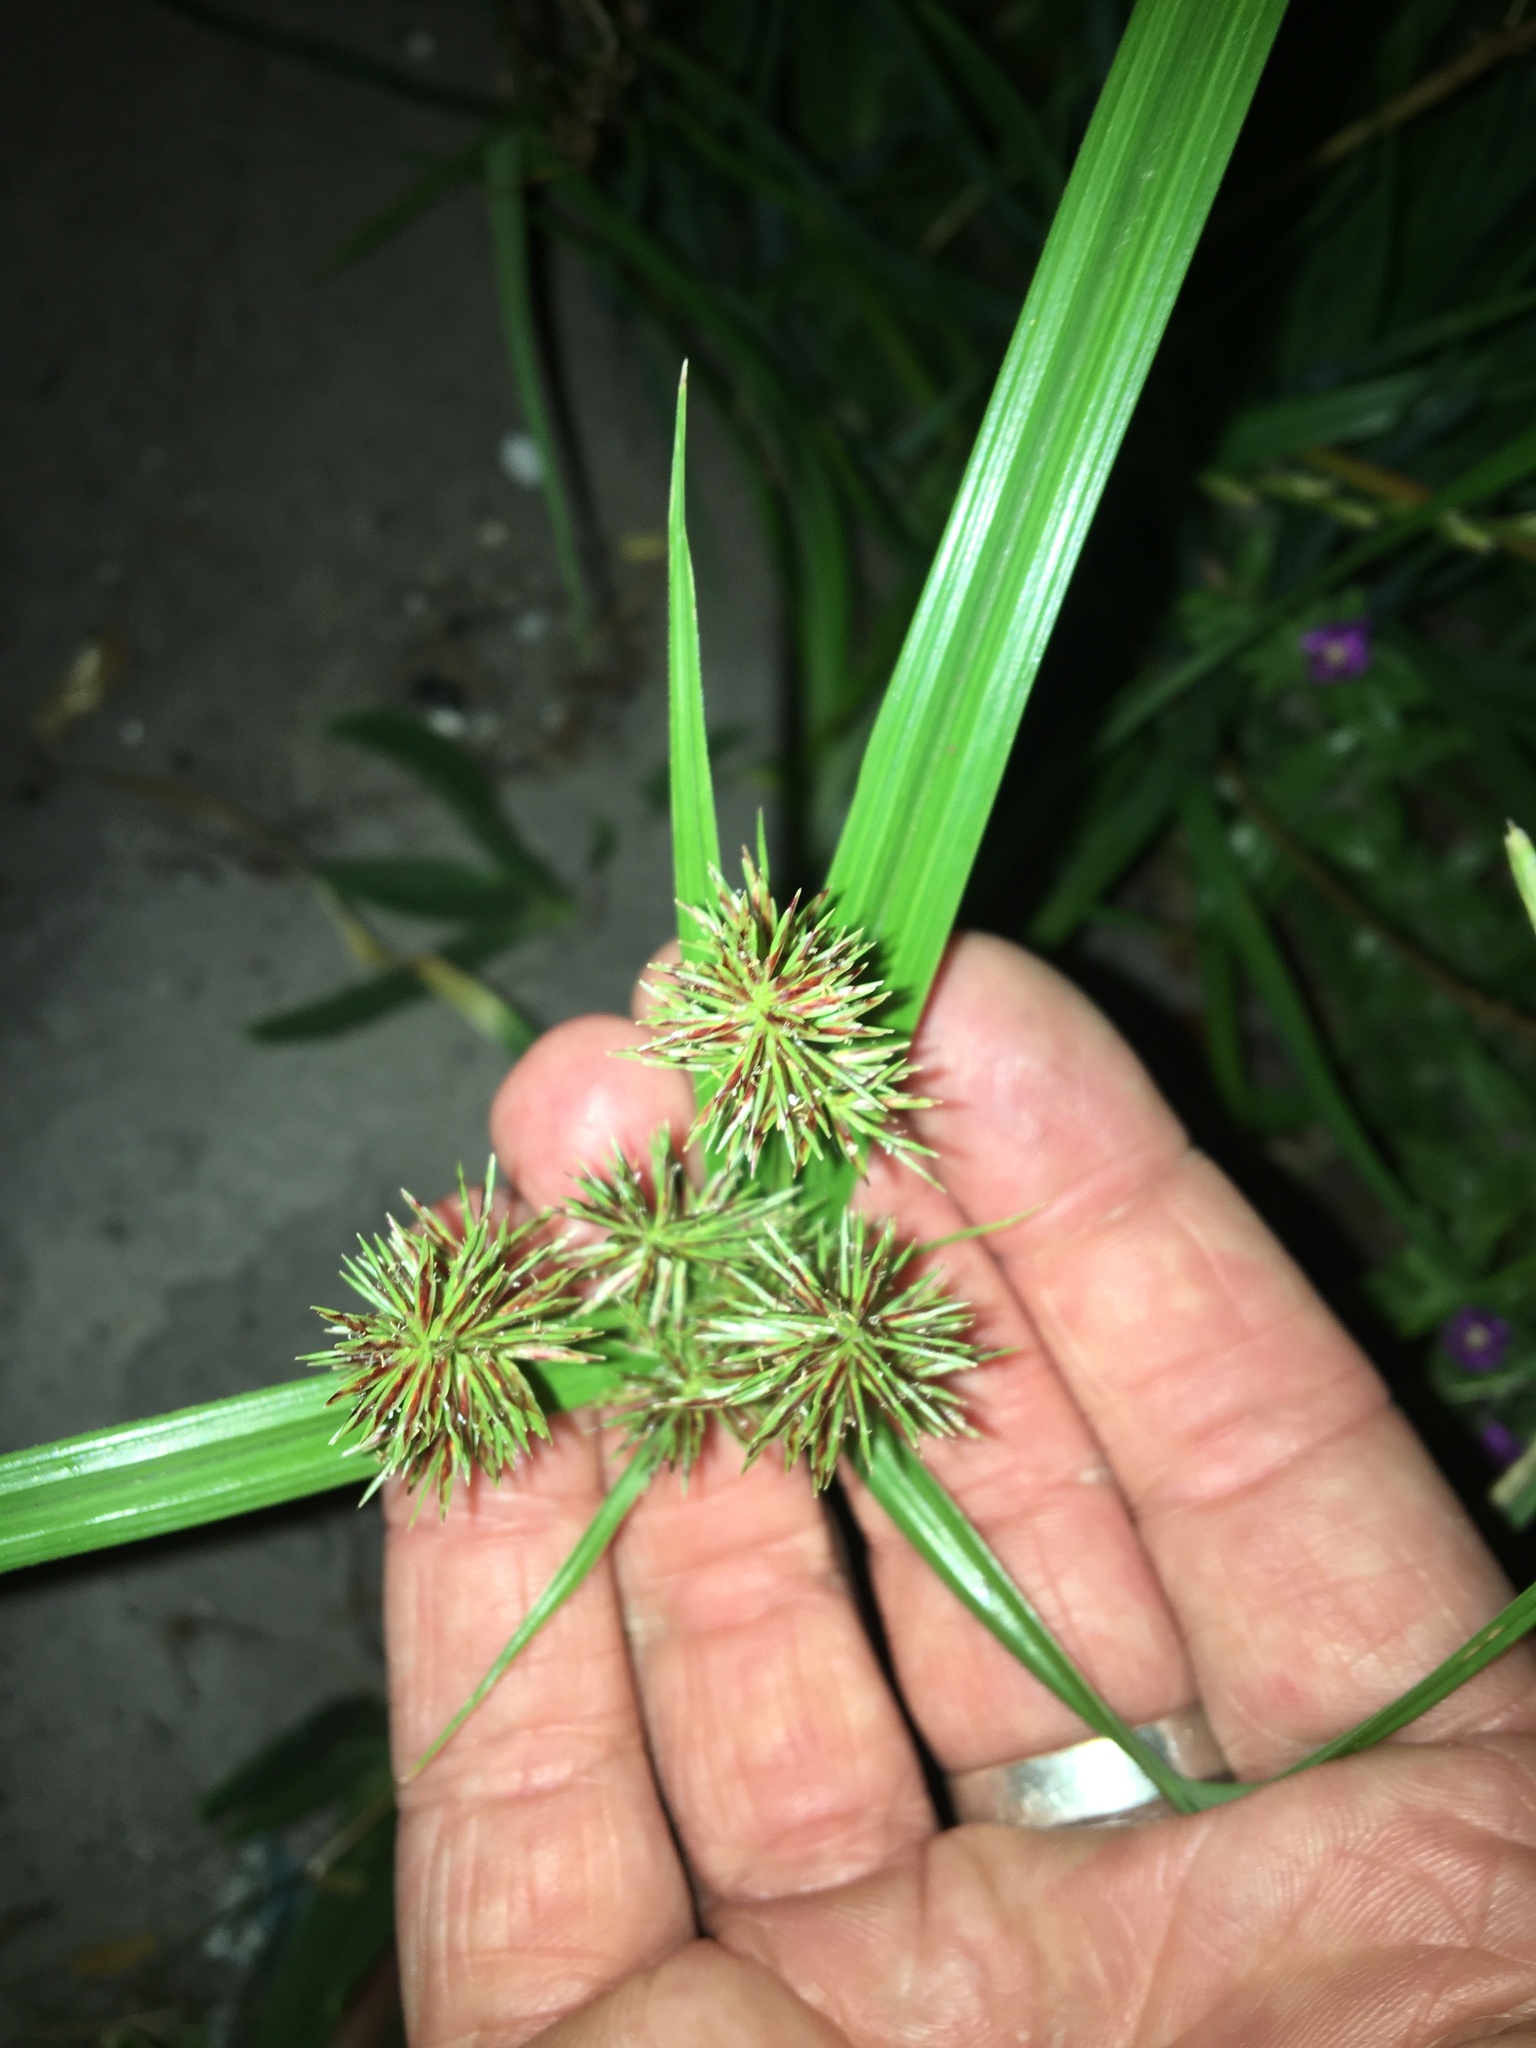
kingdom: Plantae
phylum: Tracheophyta
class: Liliopsida
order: Poales
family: Cyperaceae
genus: Cyperus
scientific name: Cyperus congestus
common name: Dense flat sedge
